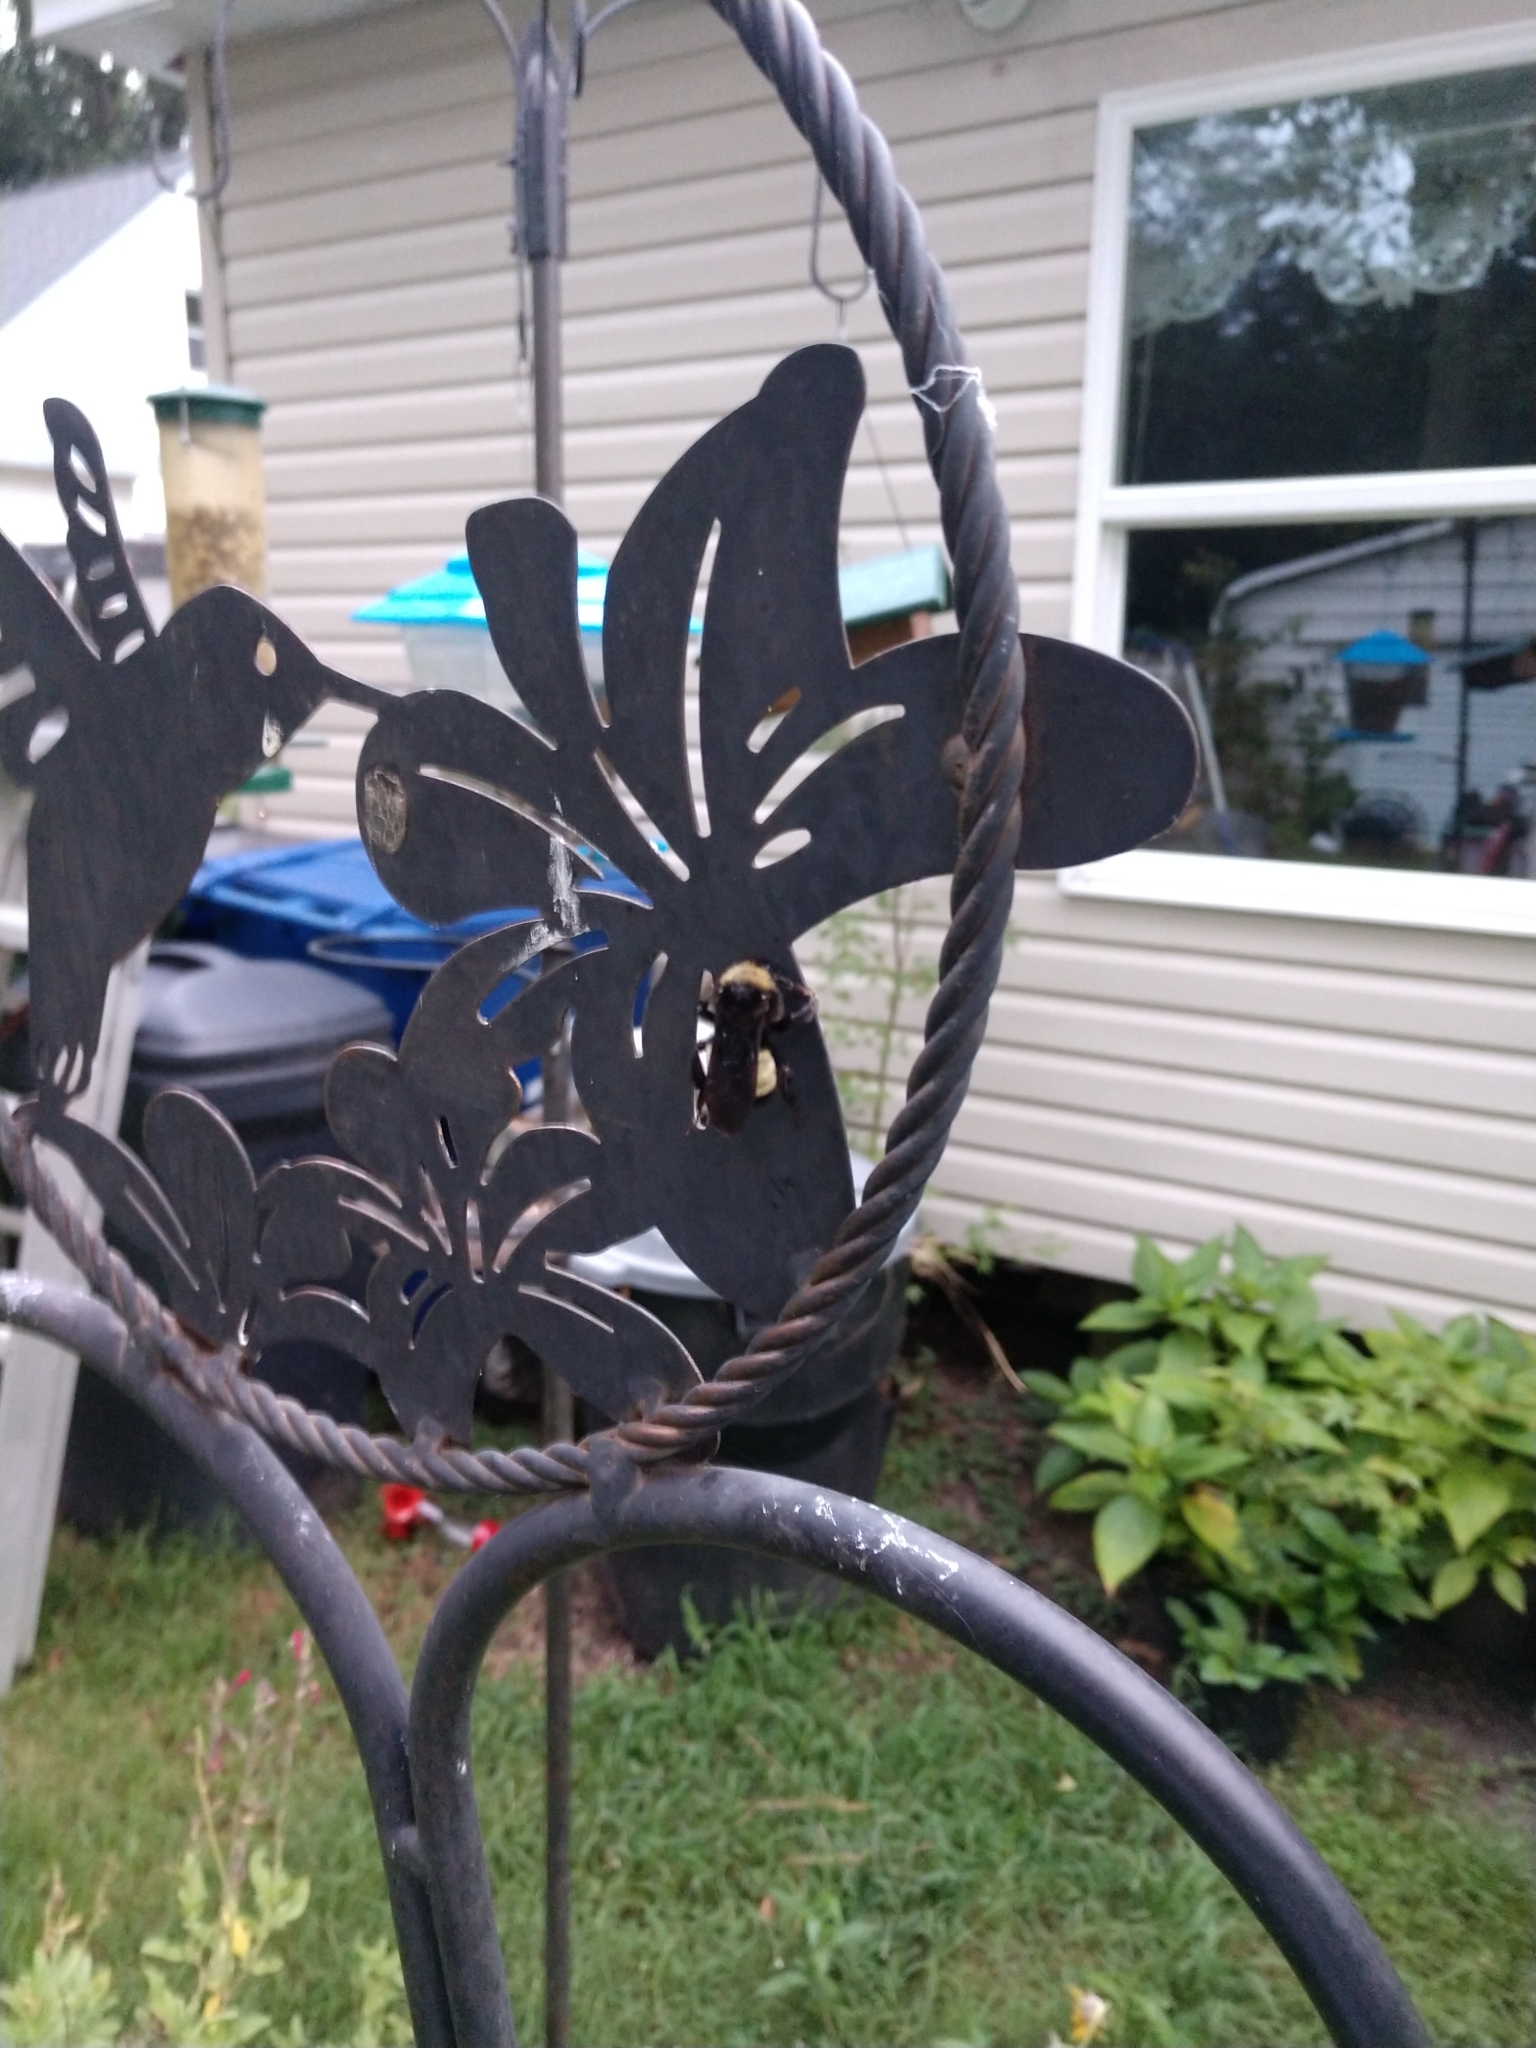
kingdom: Animalia
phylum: Arthropoda
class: Insecta
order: Hymenoptera
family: Apidae
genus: Bombus
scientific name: Bombus pensylvanicus
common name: Bumble bee
